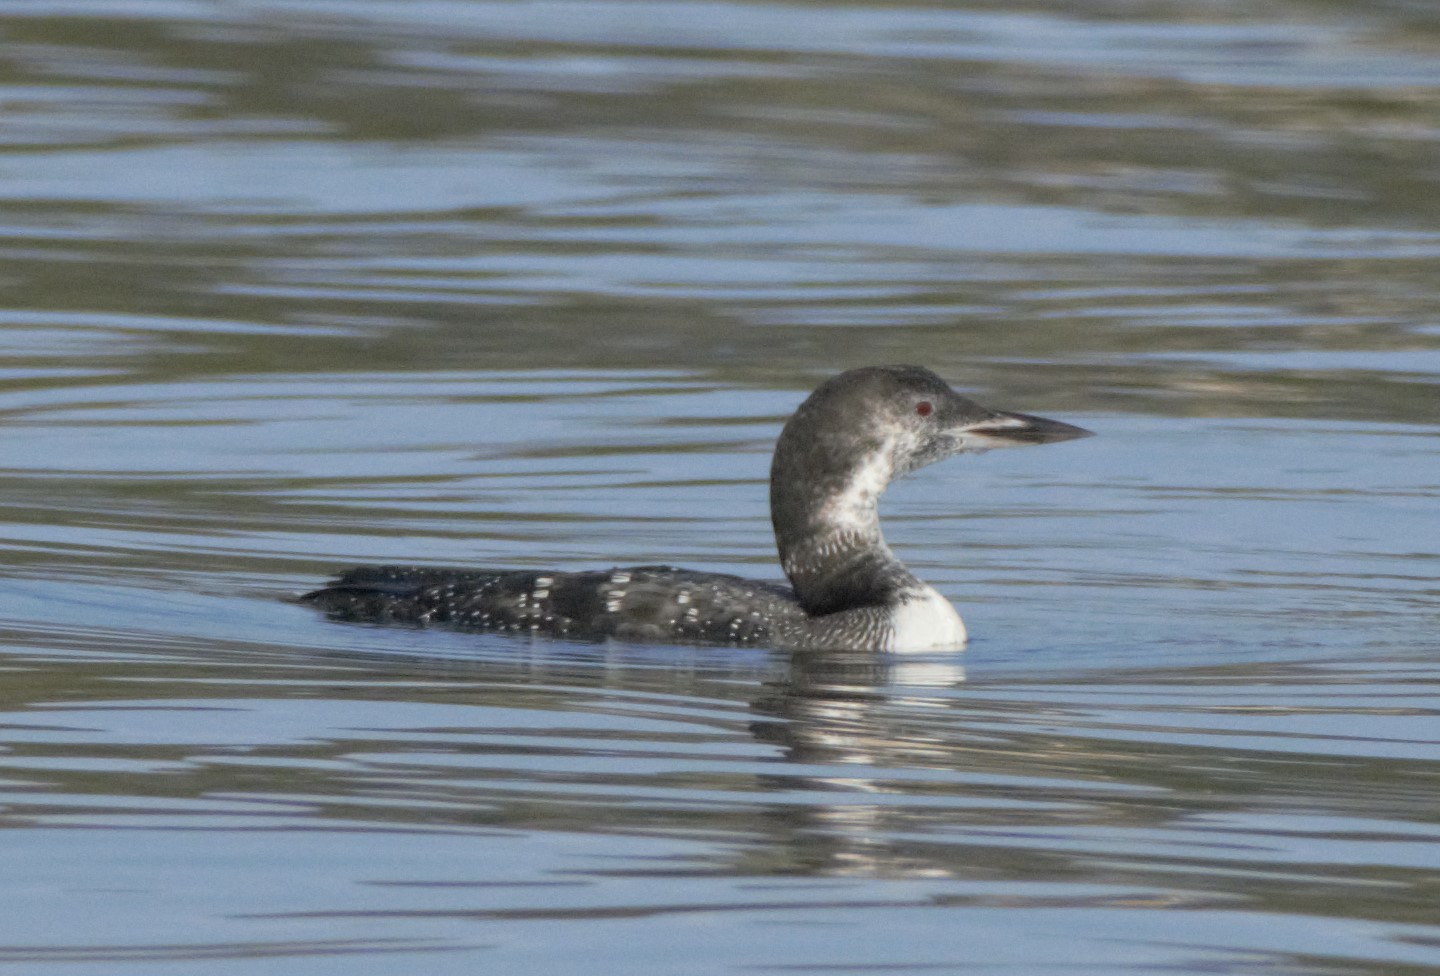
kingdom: Animalia
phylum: Chordata
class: Aves
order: Gaviiformes
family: Gaviidae
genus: Gavia
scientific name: Gavia immer
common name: Common loon
